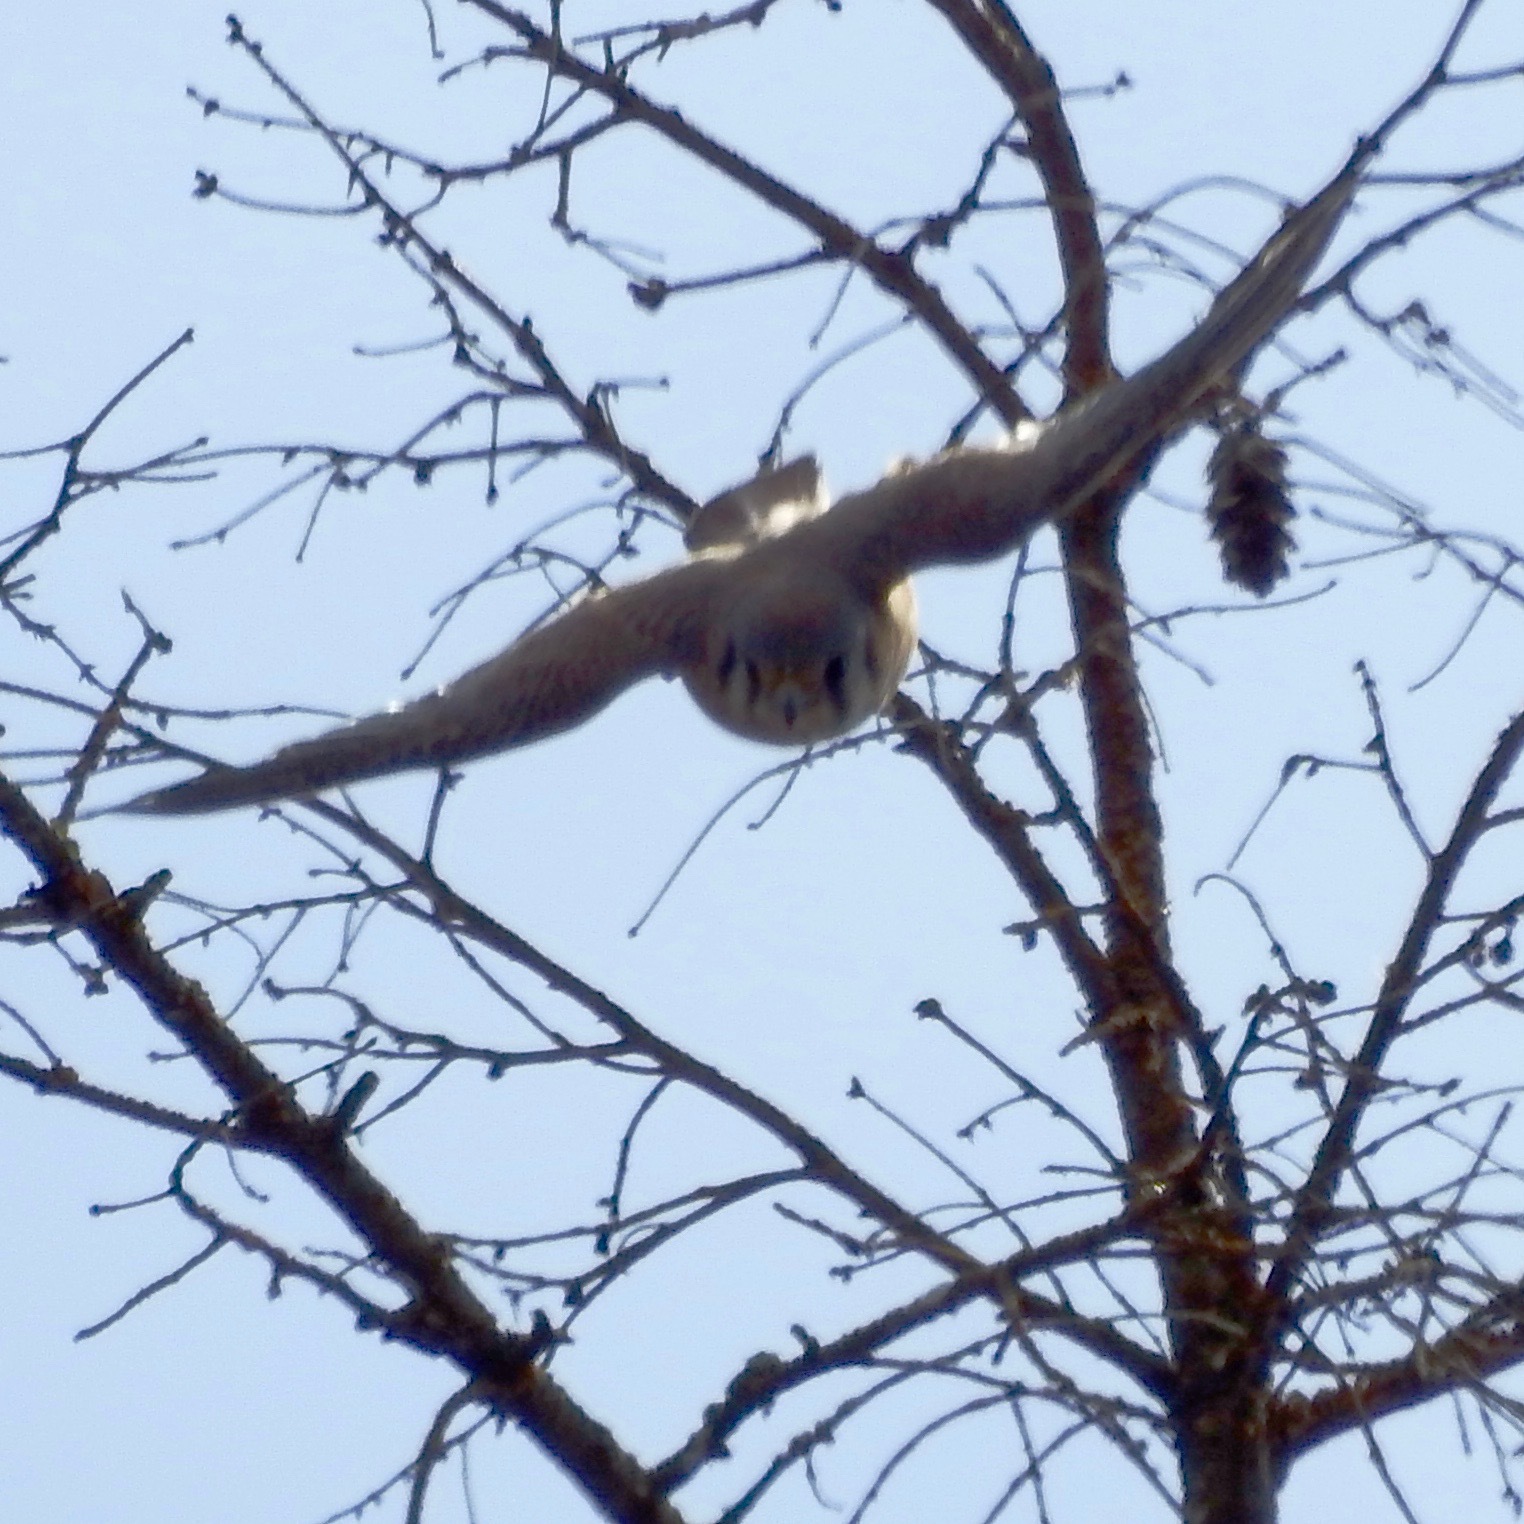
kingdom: Animalia
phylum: Chordata
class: Aves
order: Falconiformes
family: Falconidae
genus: Falco
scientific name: Falco sparverius
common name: American kestrel
